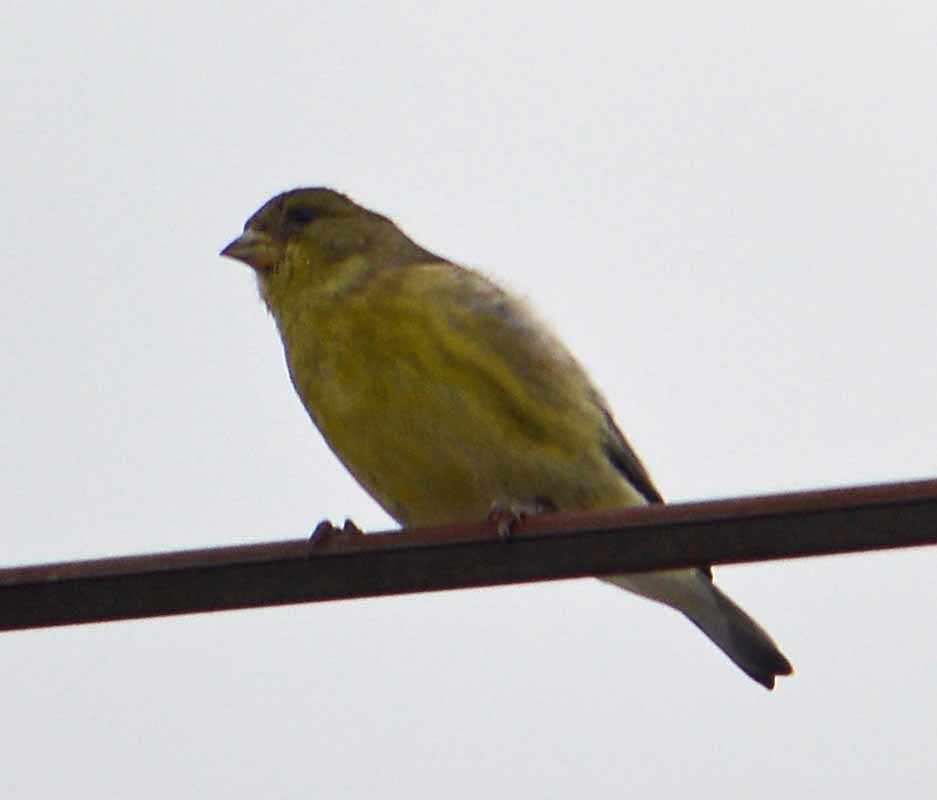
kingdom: Animalia
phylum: Chordata
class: Aves
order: Passeriformes
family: Fringillidae
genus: Spinus
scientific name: Spinus psaltria
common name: Lesser goldfinch
